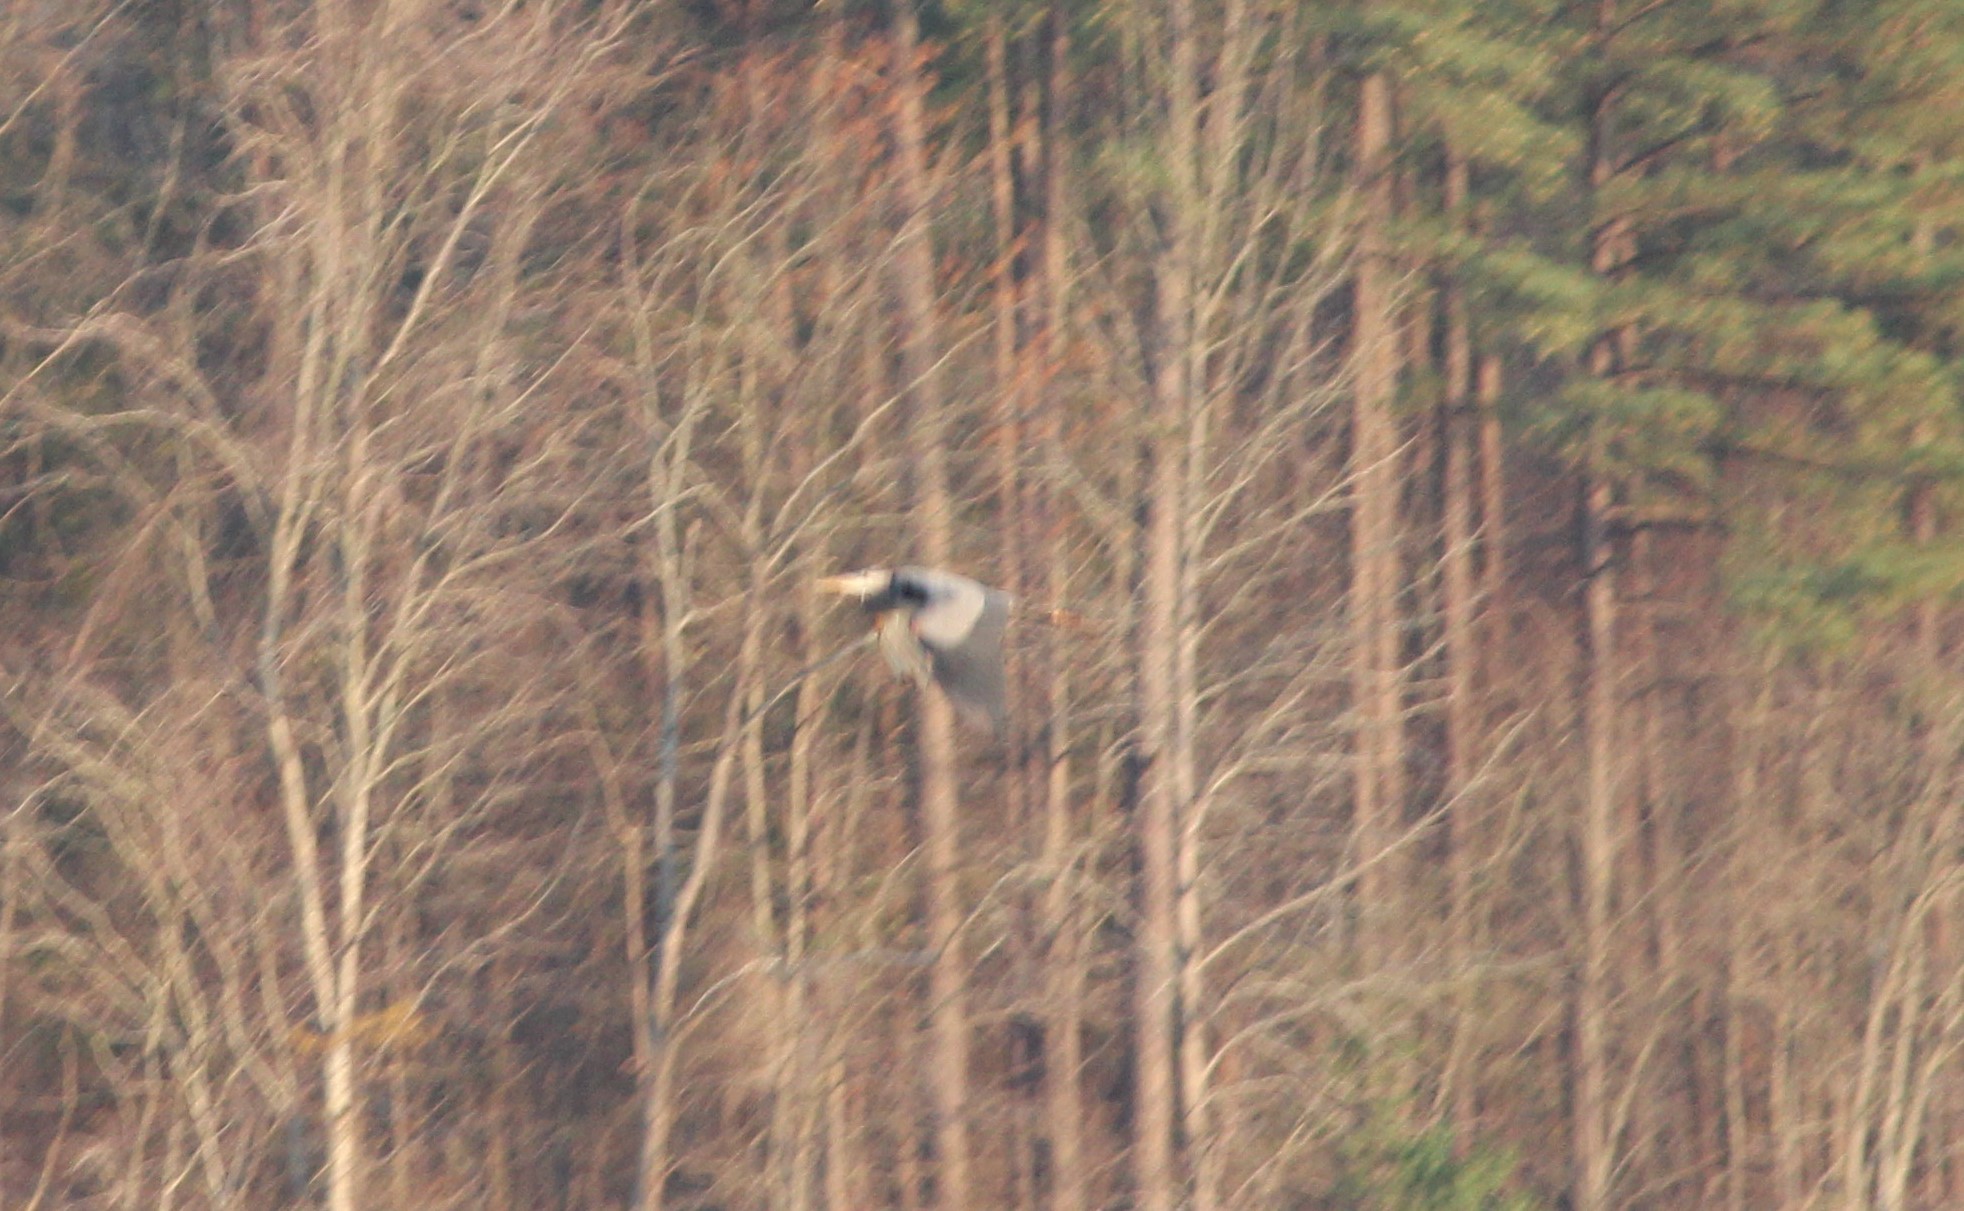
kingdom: Animalia
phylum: Chordata
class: Aves
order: Pelecaniformes
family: Ardeidae
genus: Ardea
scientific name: Ardea herodias
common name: Great blue heron
